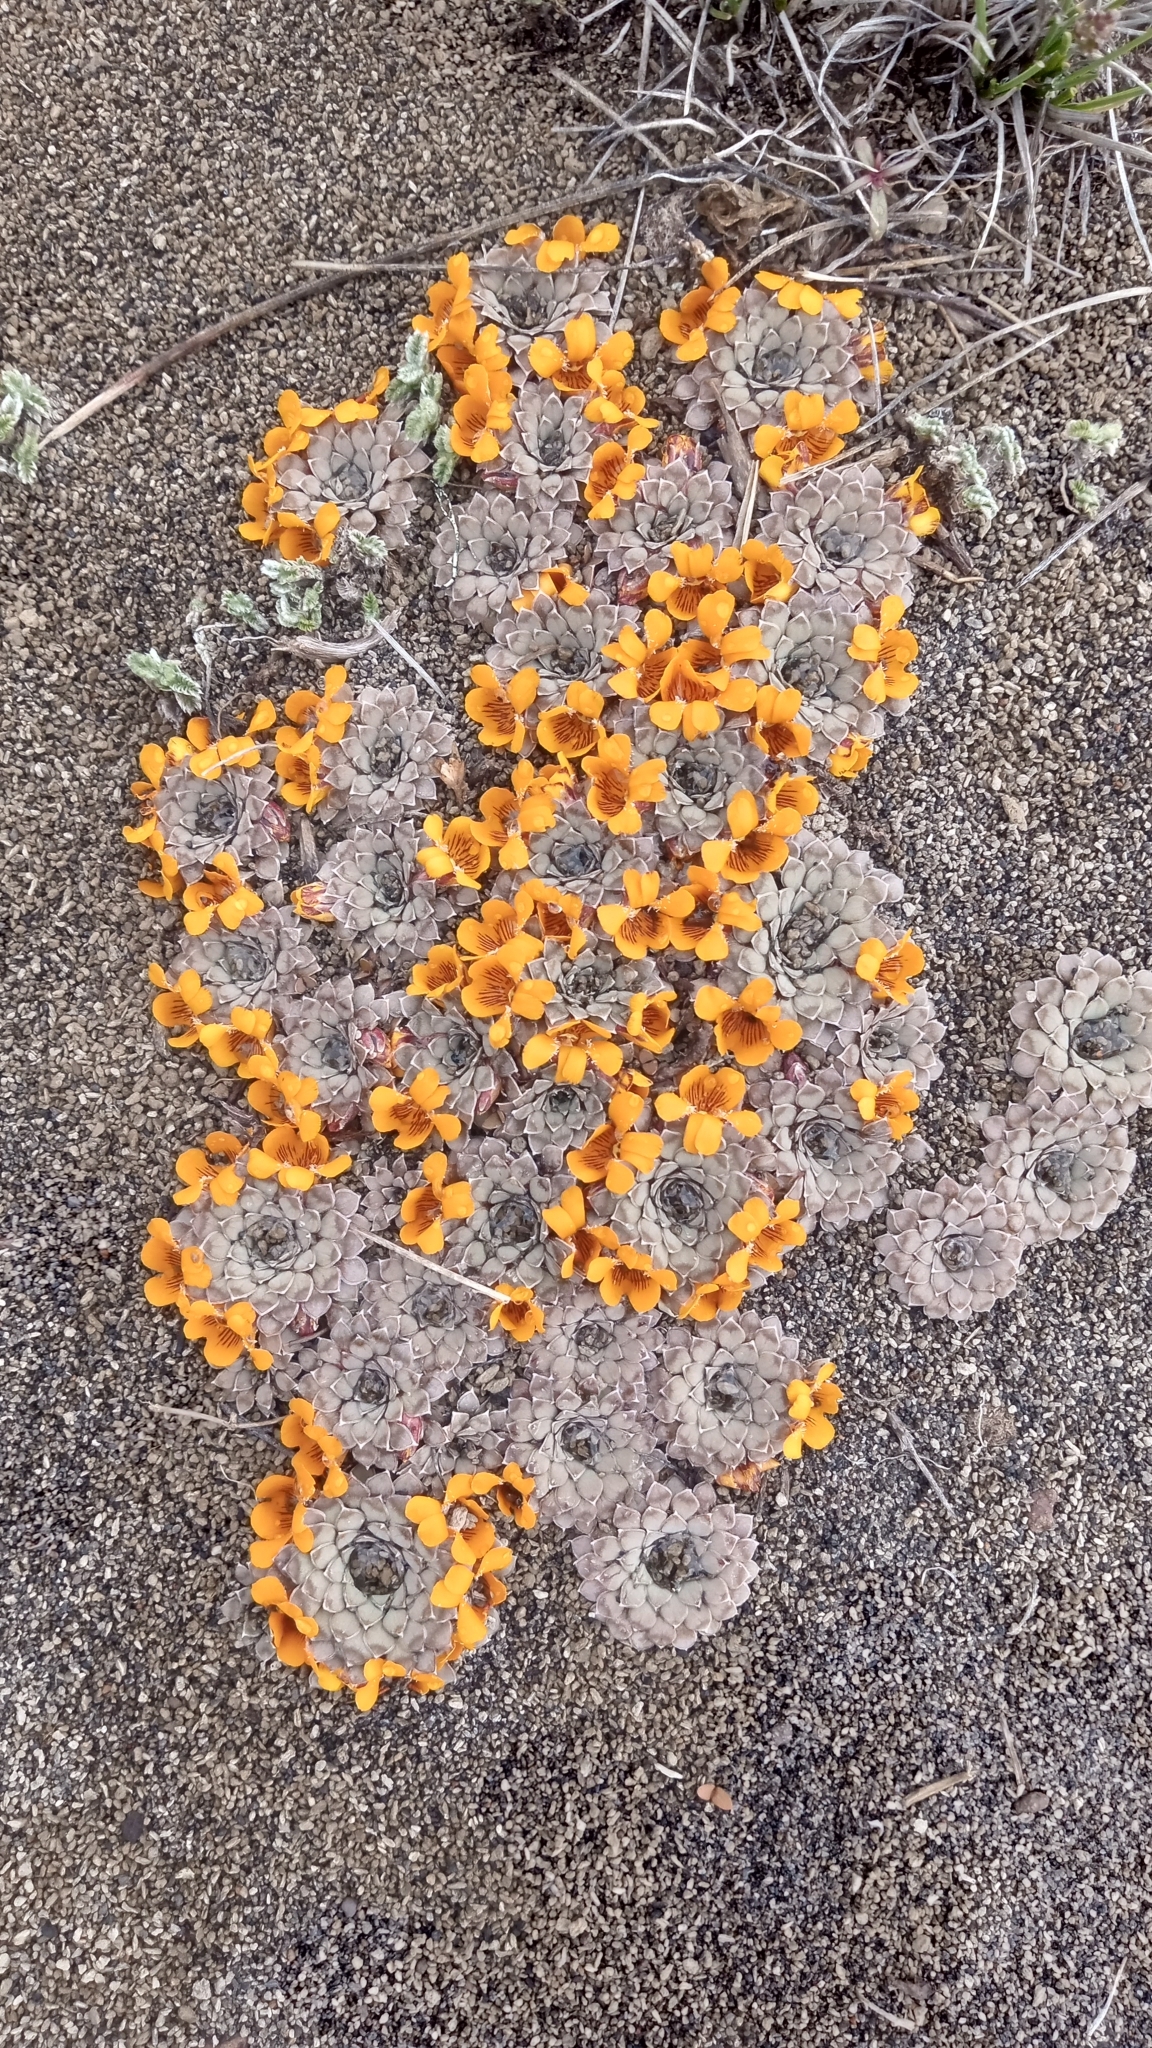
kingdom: Plantae
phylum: Tracheophyta
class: Magnoliopsida
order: Malpighiales
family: Violaceae
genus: Viola
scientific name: Viola auricolor
